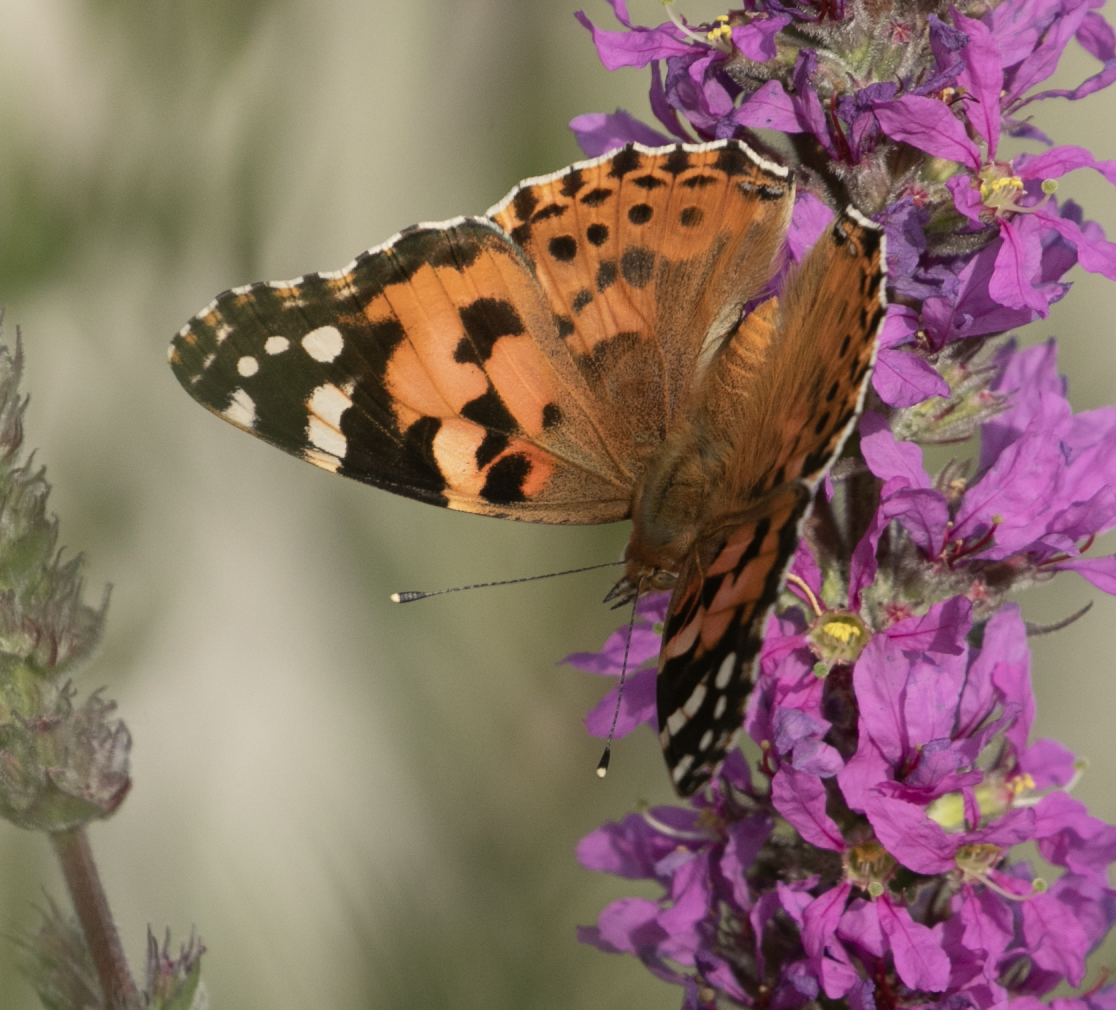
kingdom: Animalia
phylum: Arthropoda
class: Insecta
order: Lepidoptera
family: Nymphalidae
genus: Vanessa
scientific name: Vanessa cardui
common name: Painted lady
